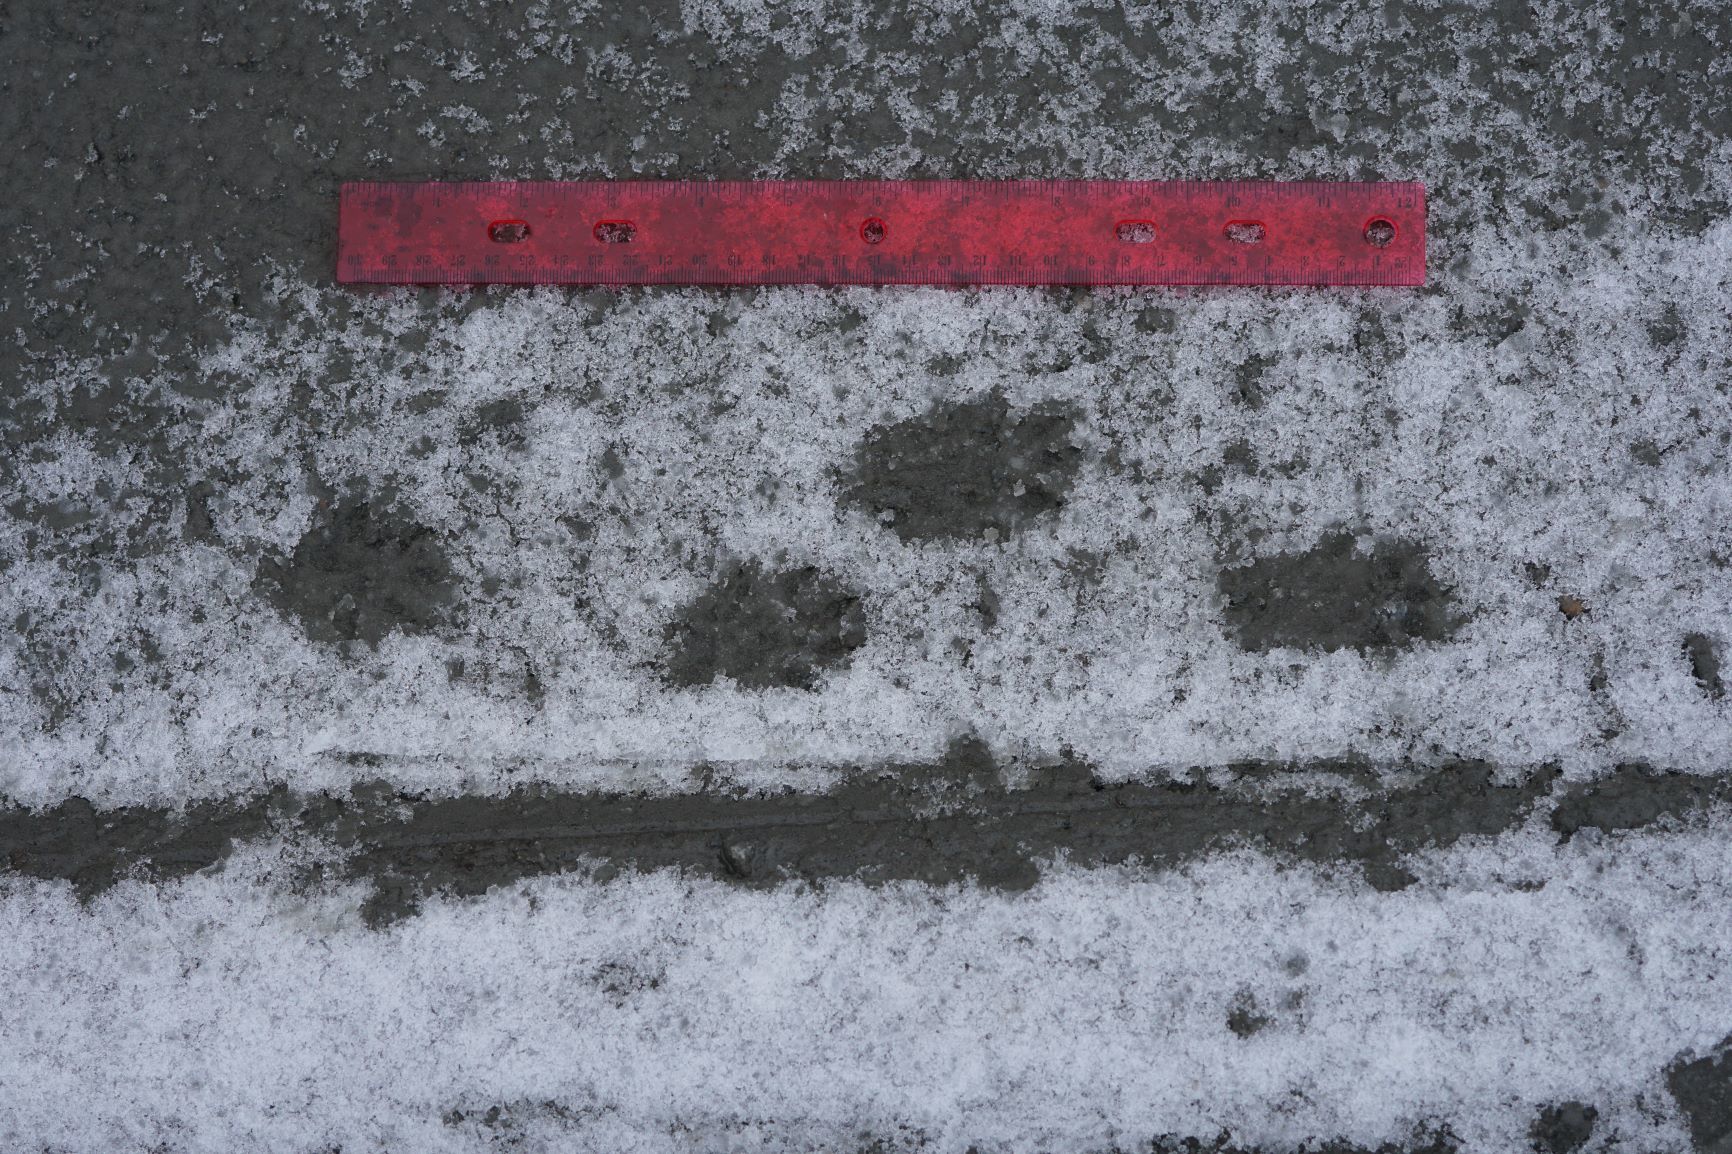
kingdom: Animalia
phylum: Chordata
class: Mammalia
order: Carnivora
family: Mustelidae
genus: Mustela
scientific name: Mustela
